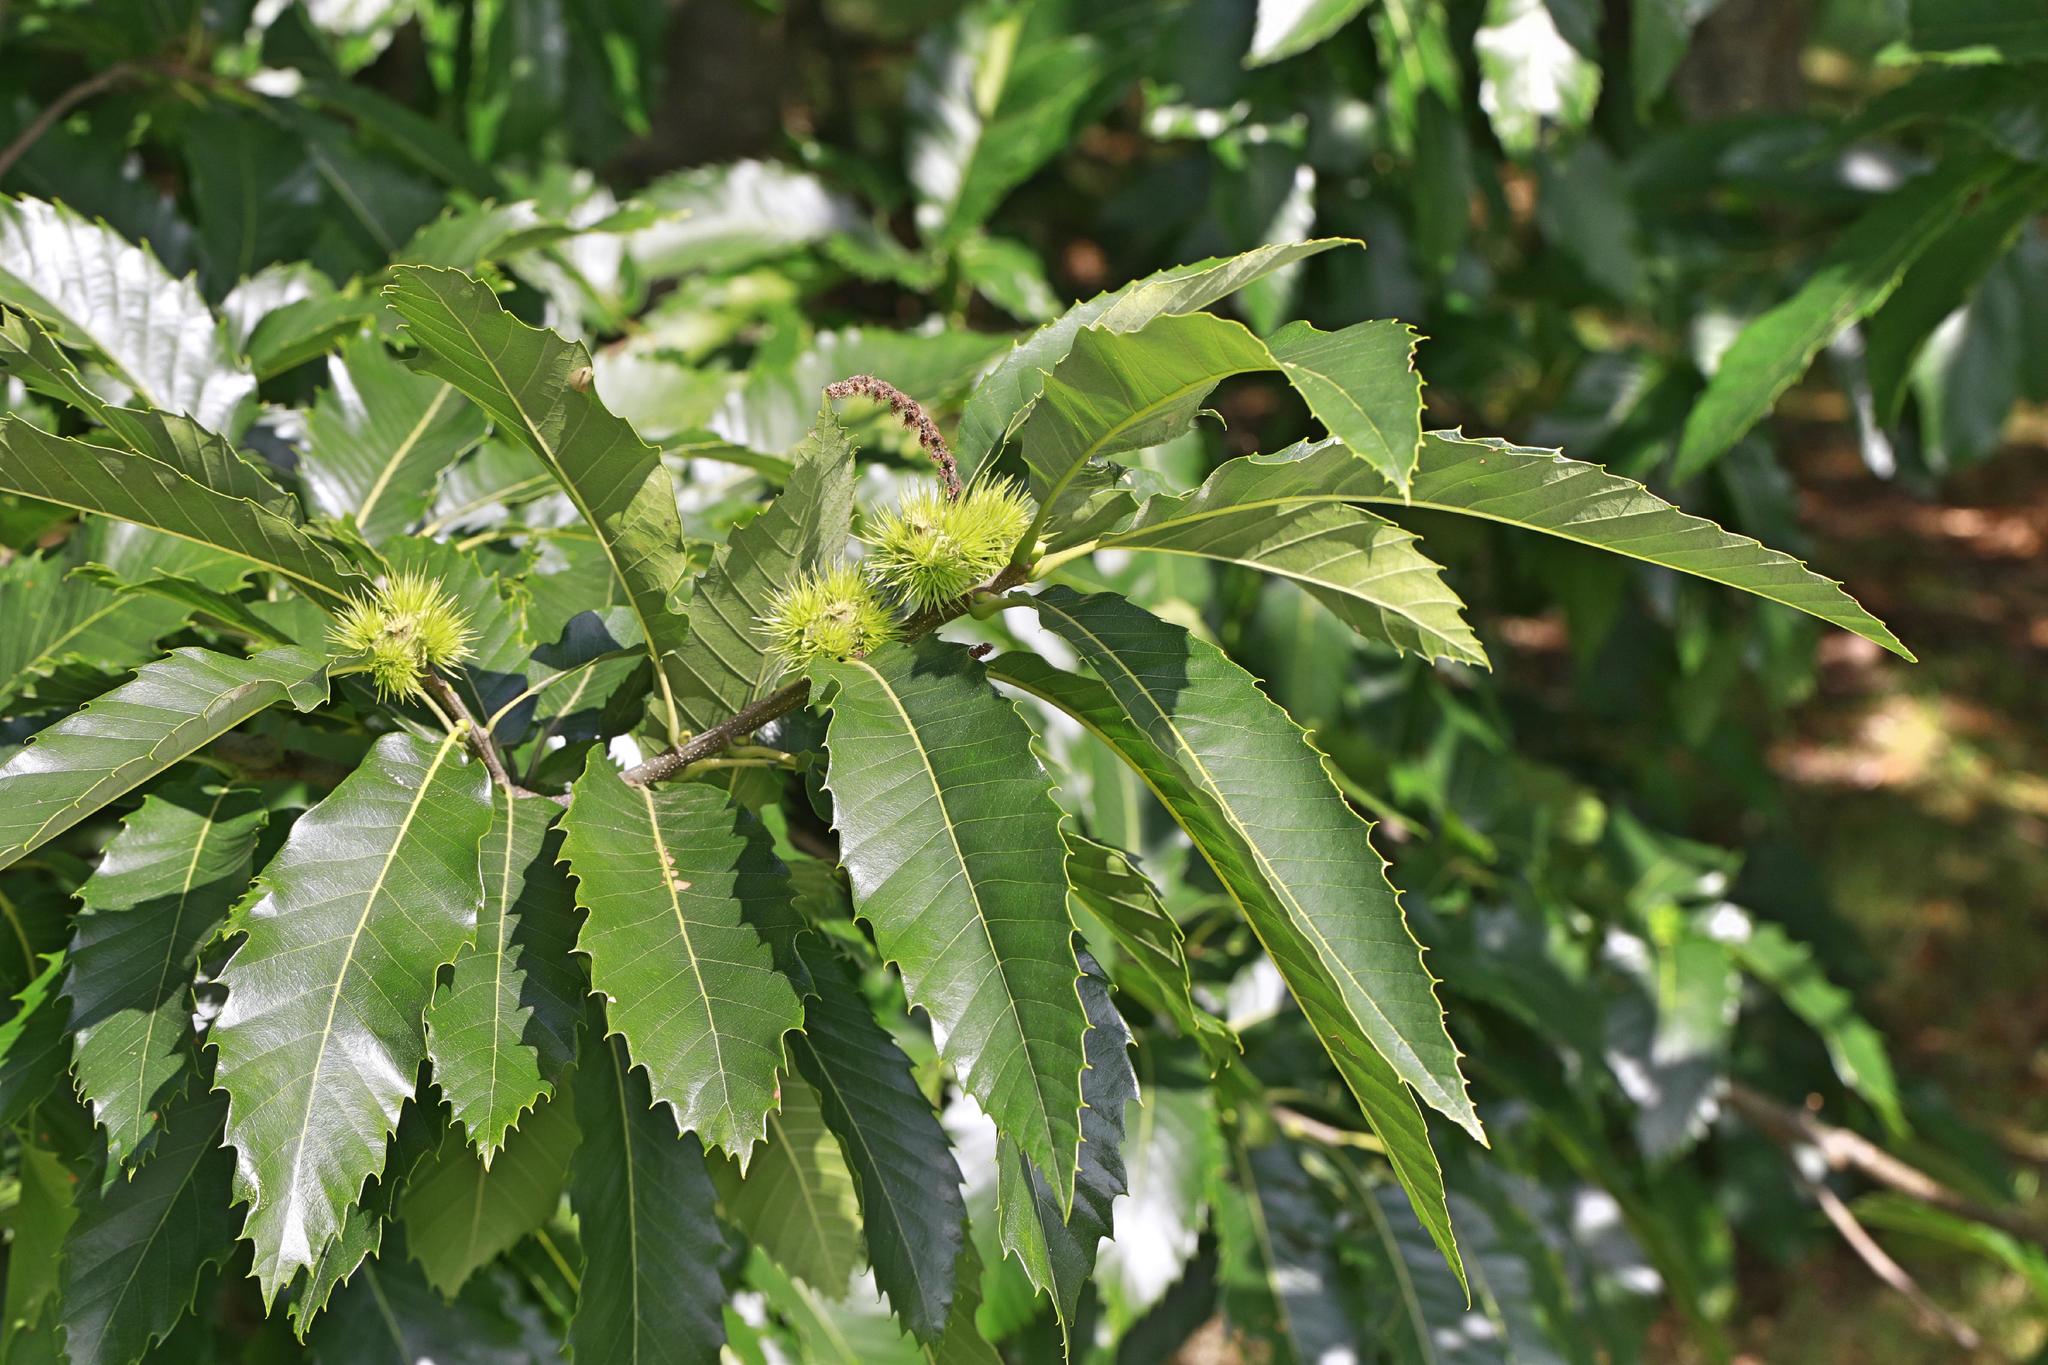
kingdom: Plantae
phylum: Tracheophyta
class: Magnoliopsida
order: Fagales
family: Fagaceae
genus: Castanea
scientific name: Castanea sativa
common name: Sweet chestnut
